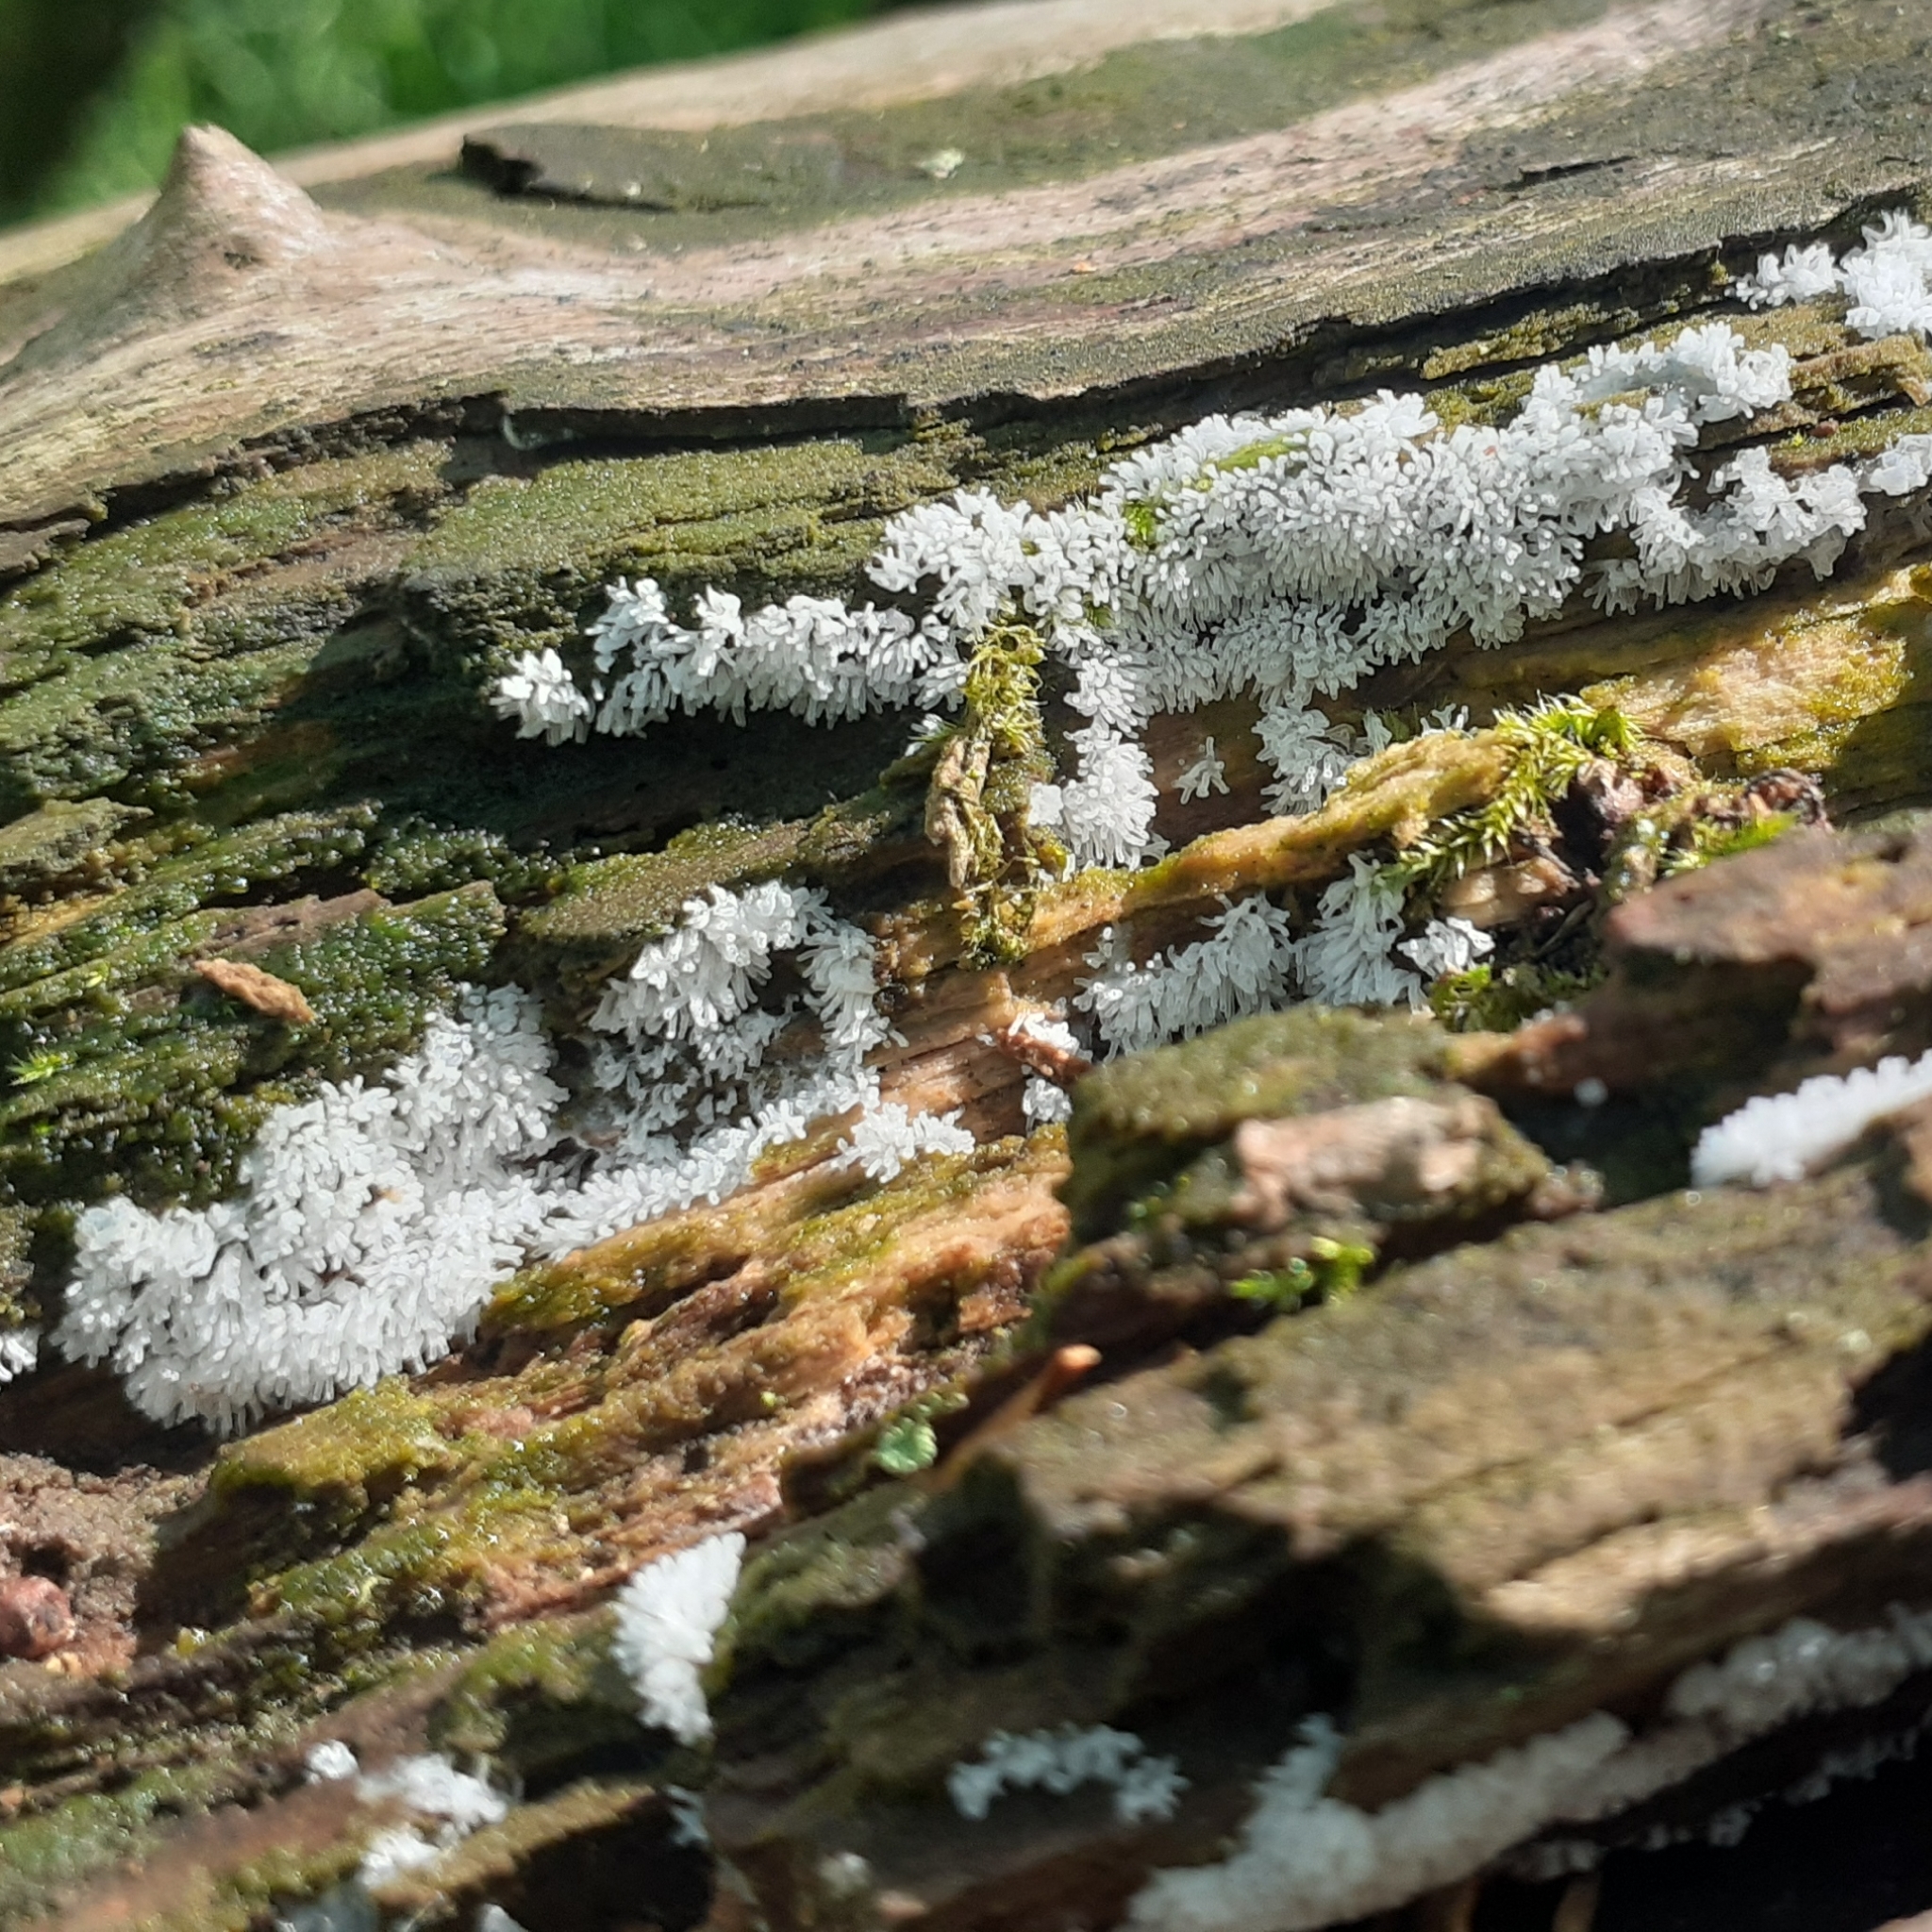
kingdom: Protozoa
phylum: Mycetozoa
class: Protosteliomycetes
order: Ceratiomyxales
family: Ceratiomyxaceae
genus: Ceratiomyxa
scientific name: Ceratiomyxa fruticulosa
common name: Honeycomb coral slime mold
